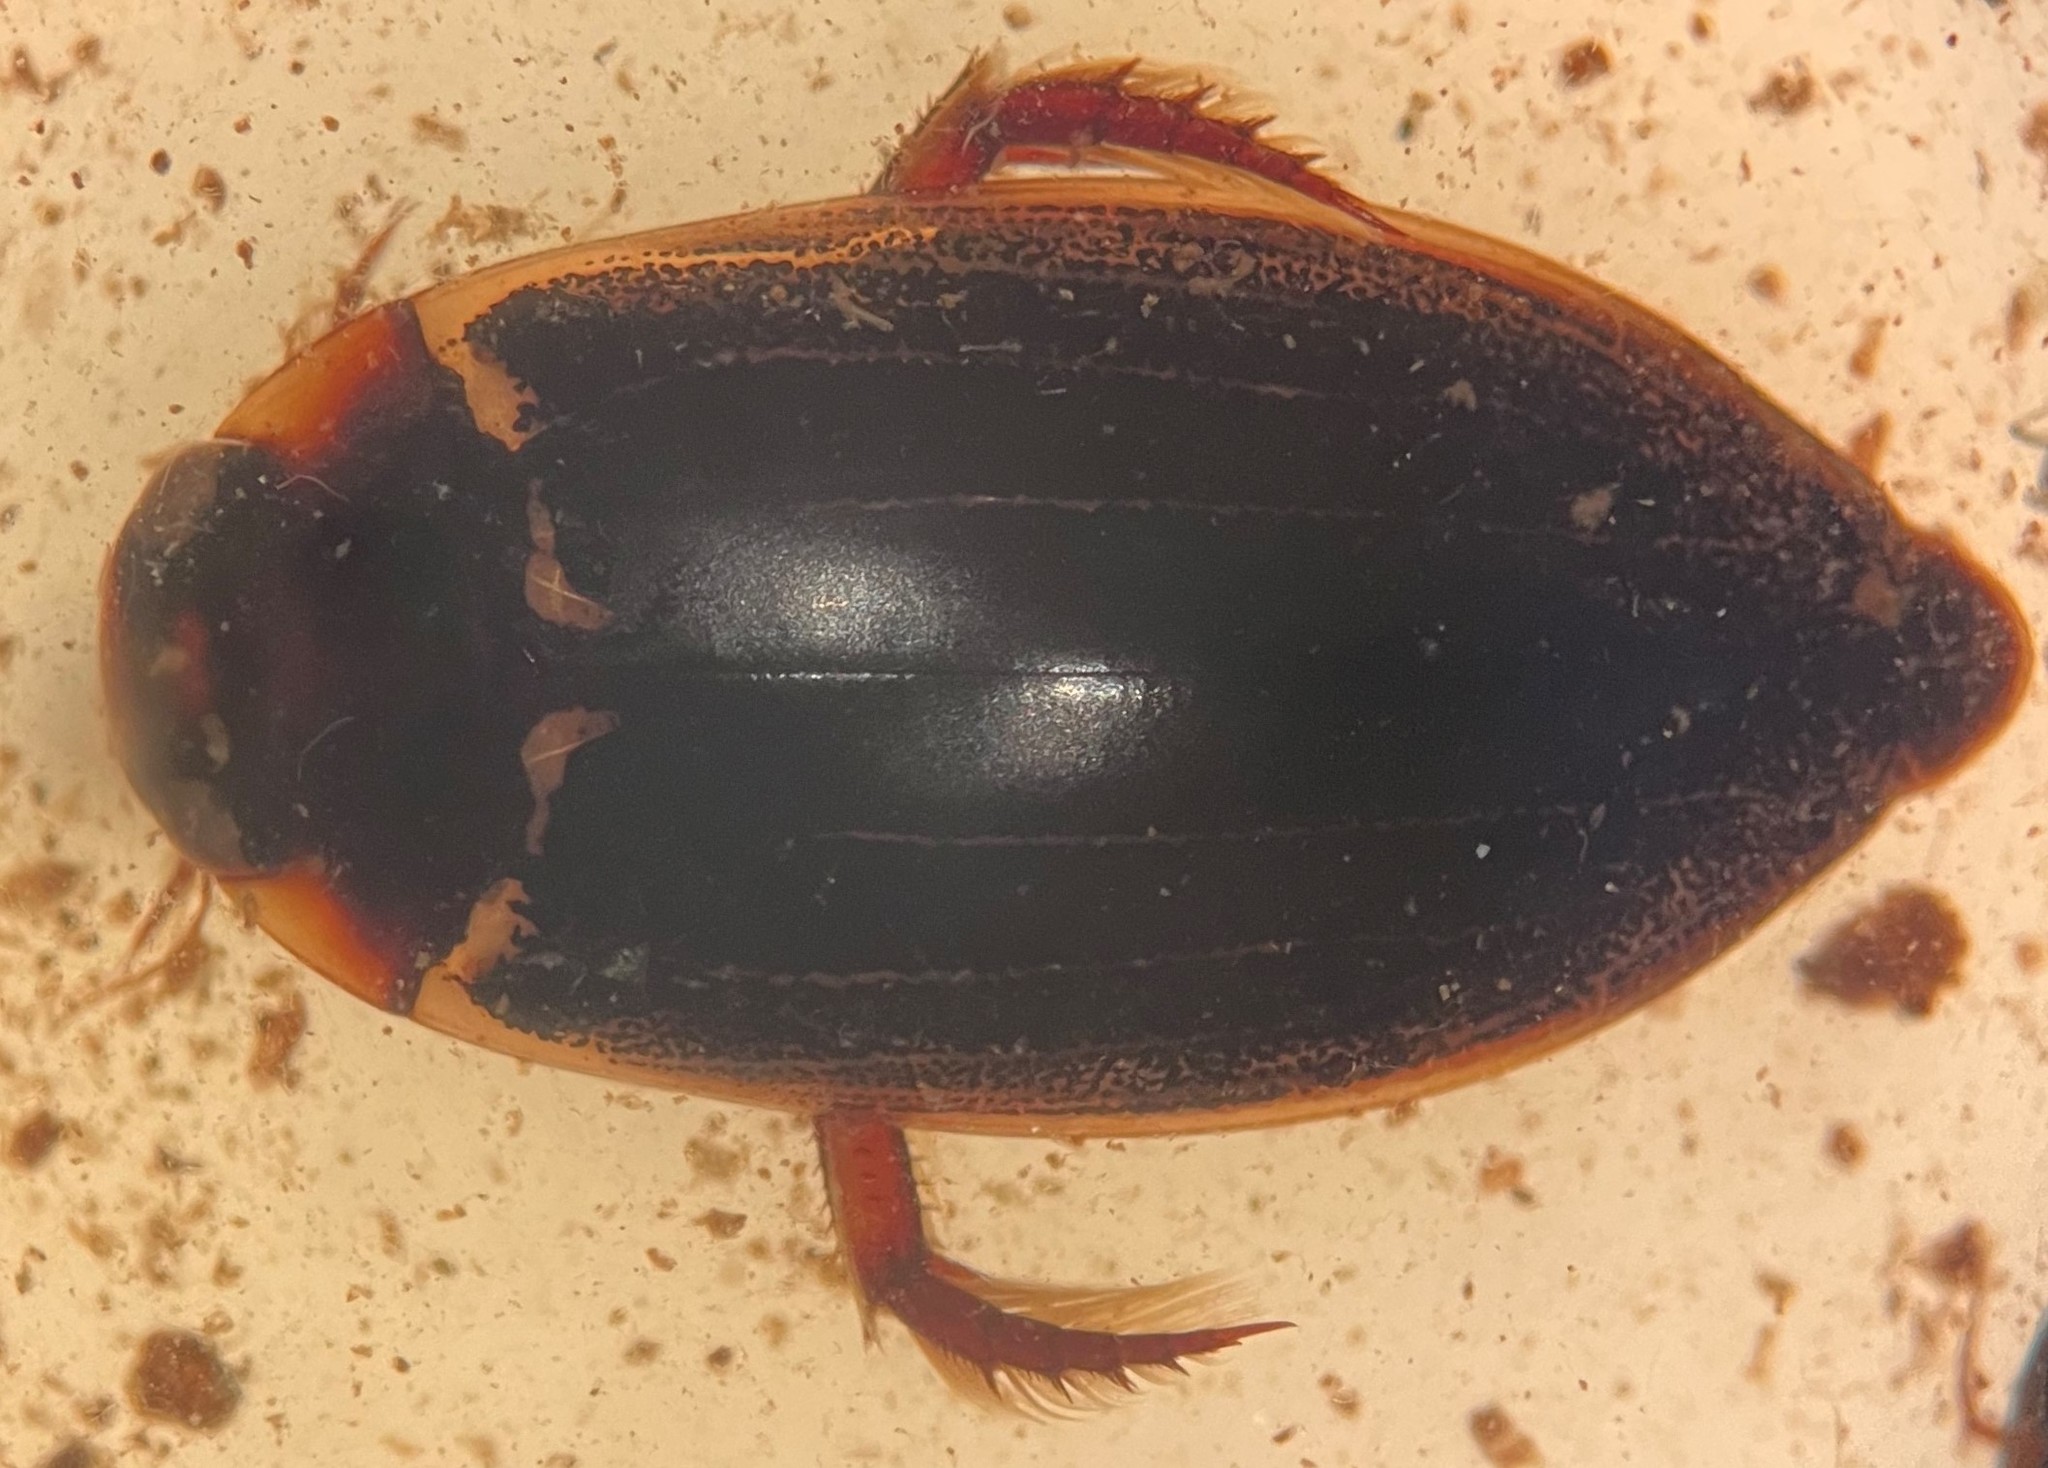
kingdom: Animalia
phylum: Arthropoda
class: Insecta
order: Coleoptera
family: Dytiscidae
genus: Meridiorhantus
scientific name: Meridiorhantus calidus
